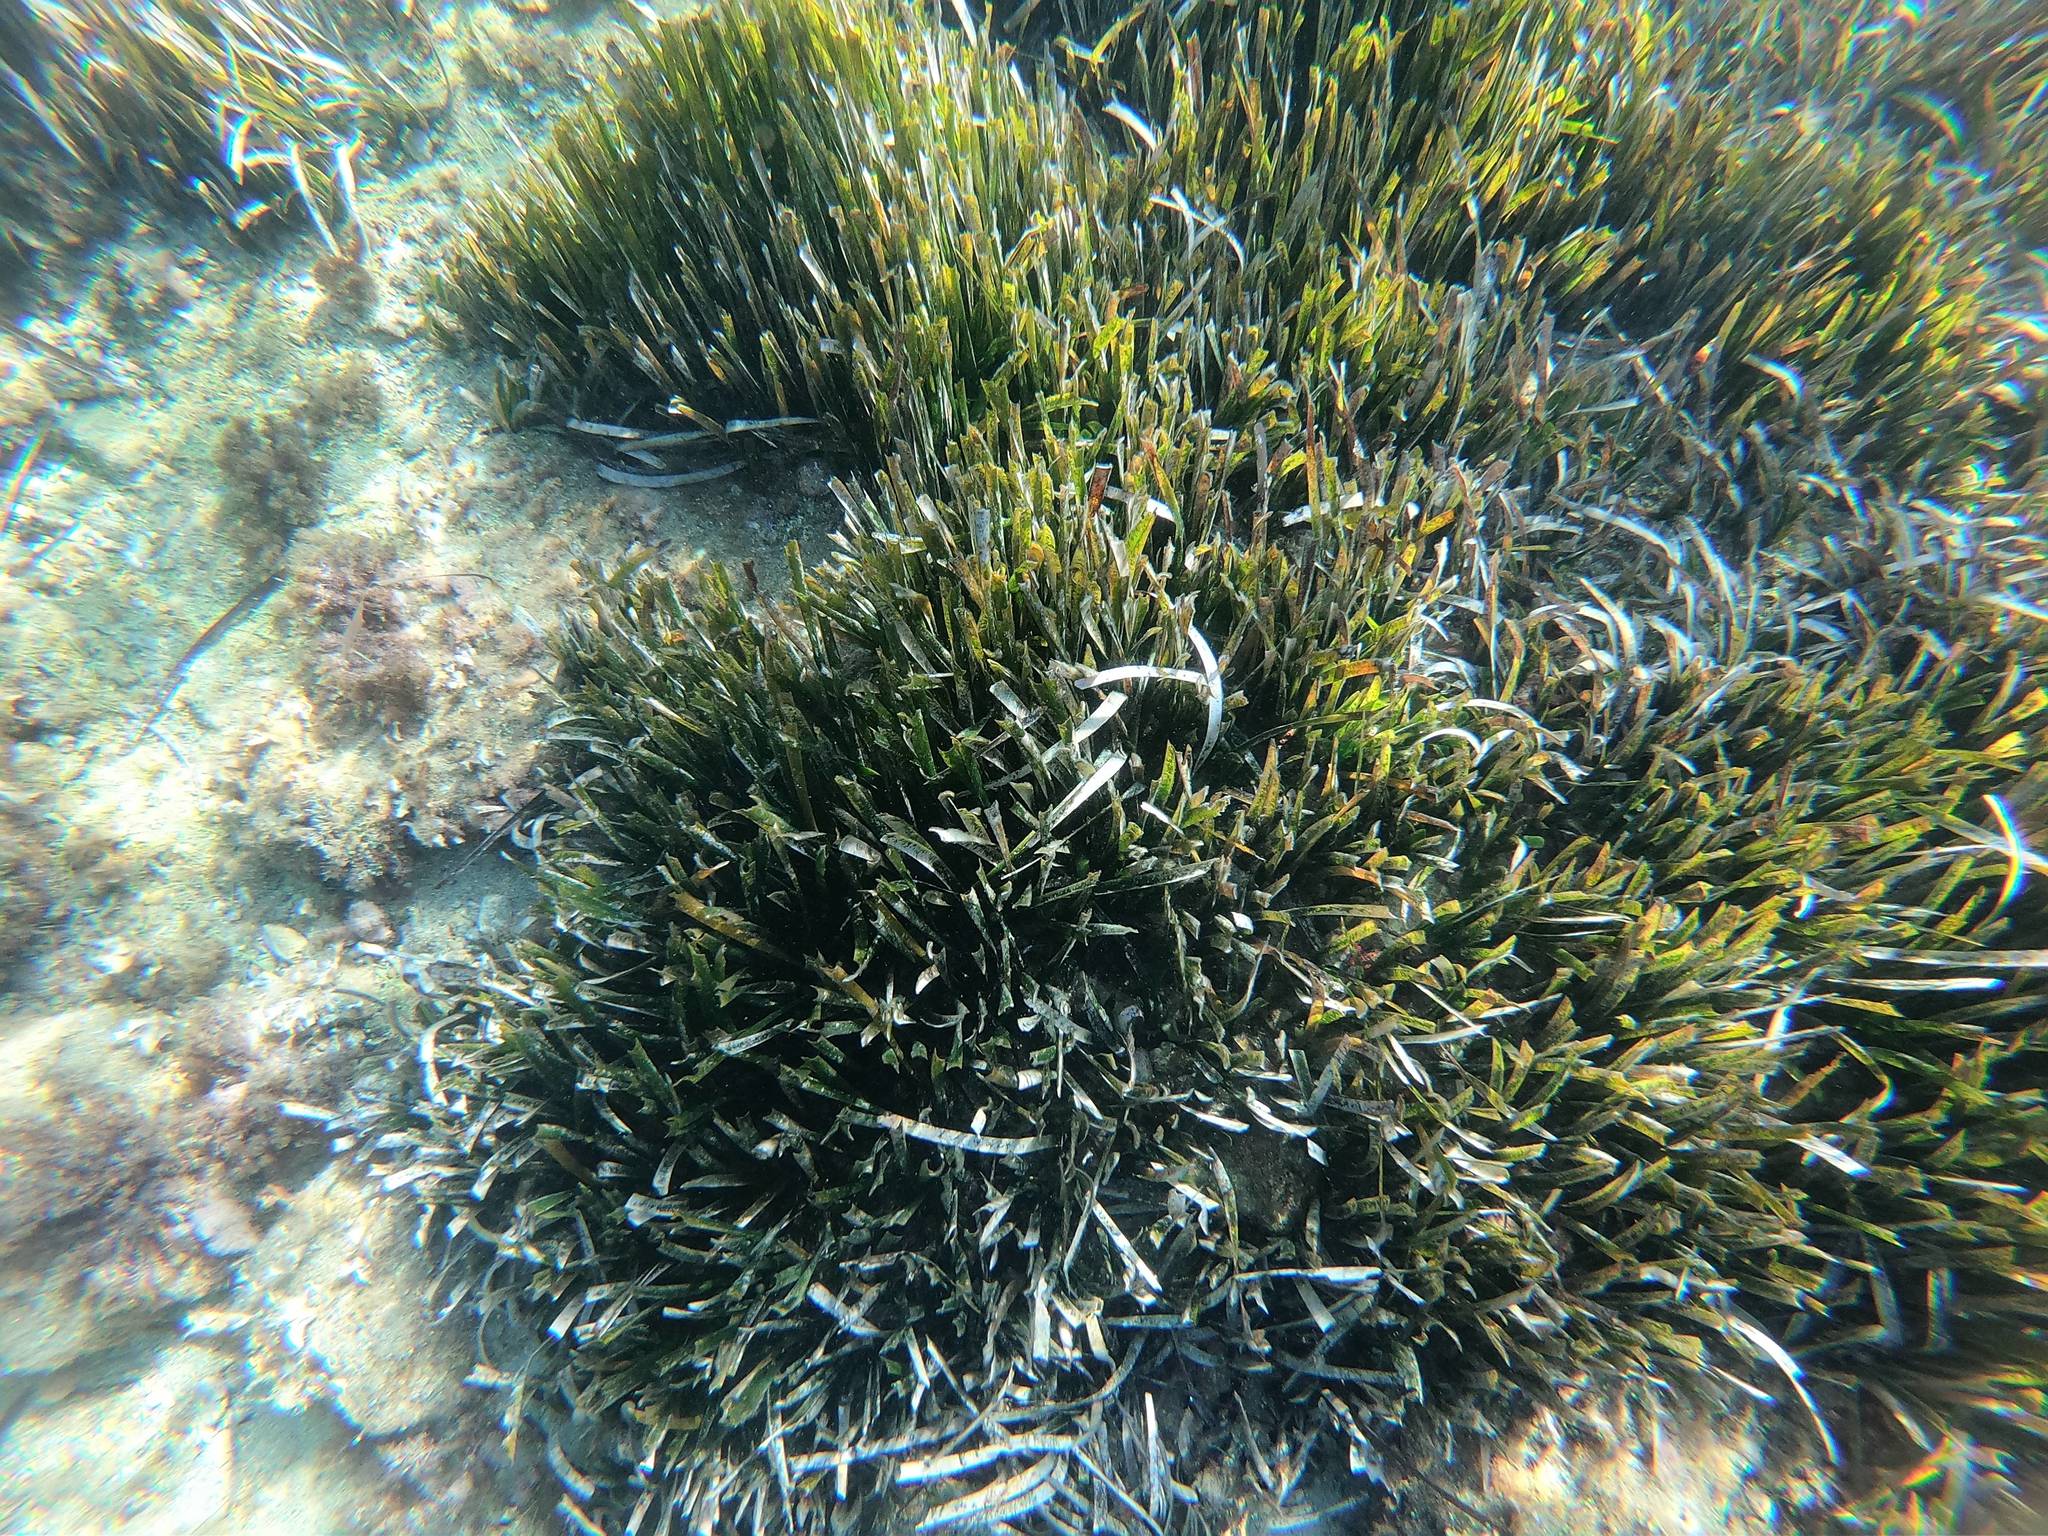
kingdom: Plantae
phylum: Tracheophyta
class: Liliopsida
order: Alismatales
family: Posidoniaceae
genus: Posidonia
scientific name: Posidonia oceanica
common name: Mediterranean tapeweed
